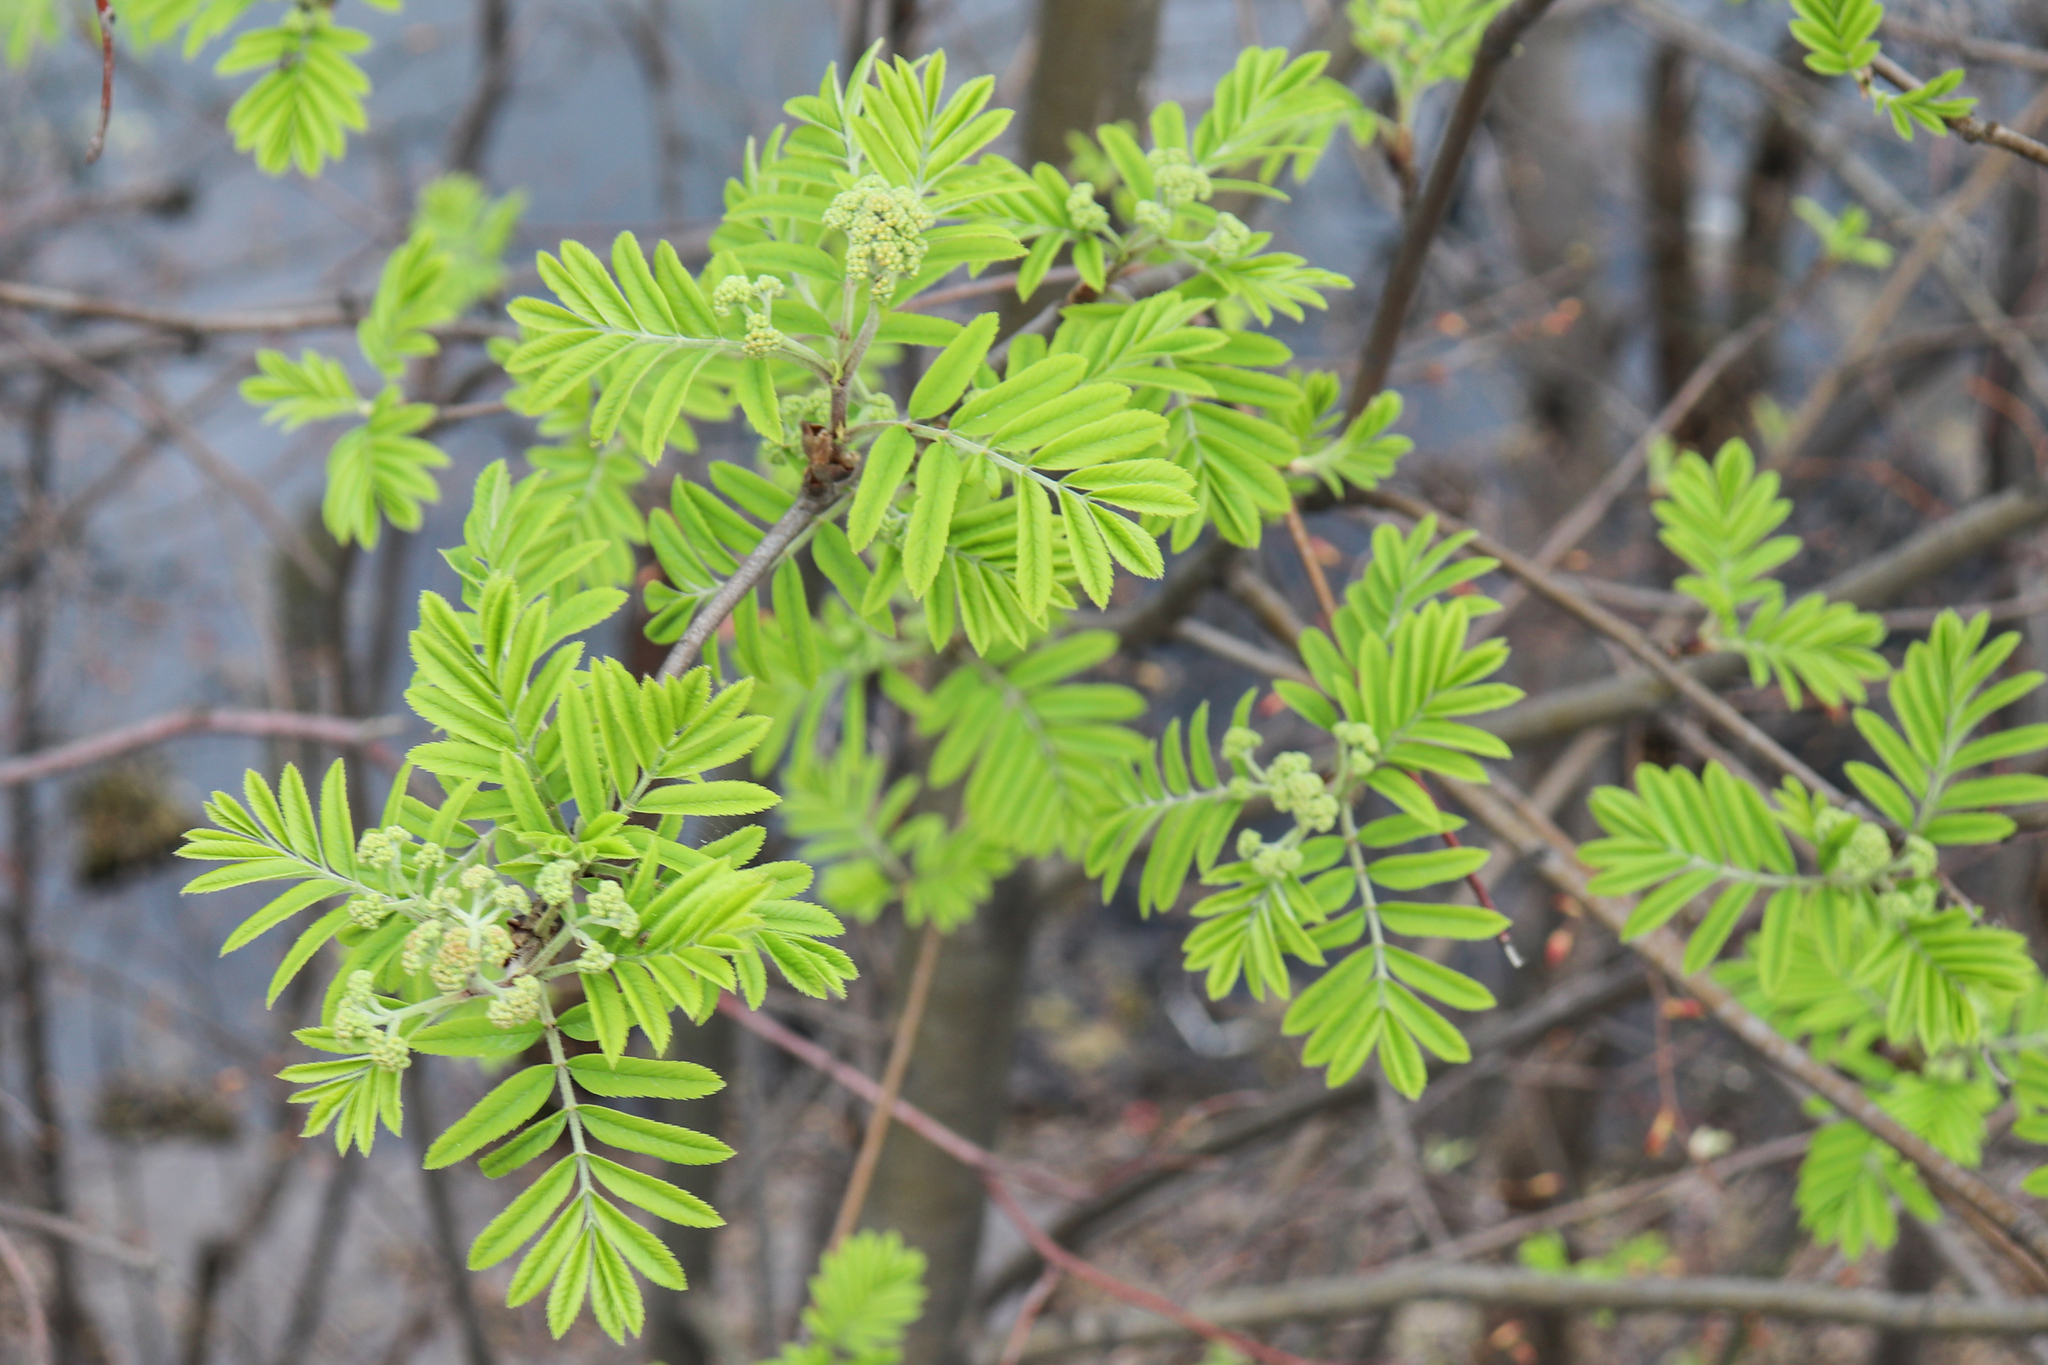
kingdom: Plantae
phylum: Tracheophyta
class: Magnoliopsida
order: Rosales
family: Rosaceae
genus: Sorbus
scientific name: Sorbus aucuparia
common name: Rowan
